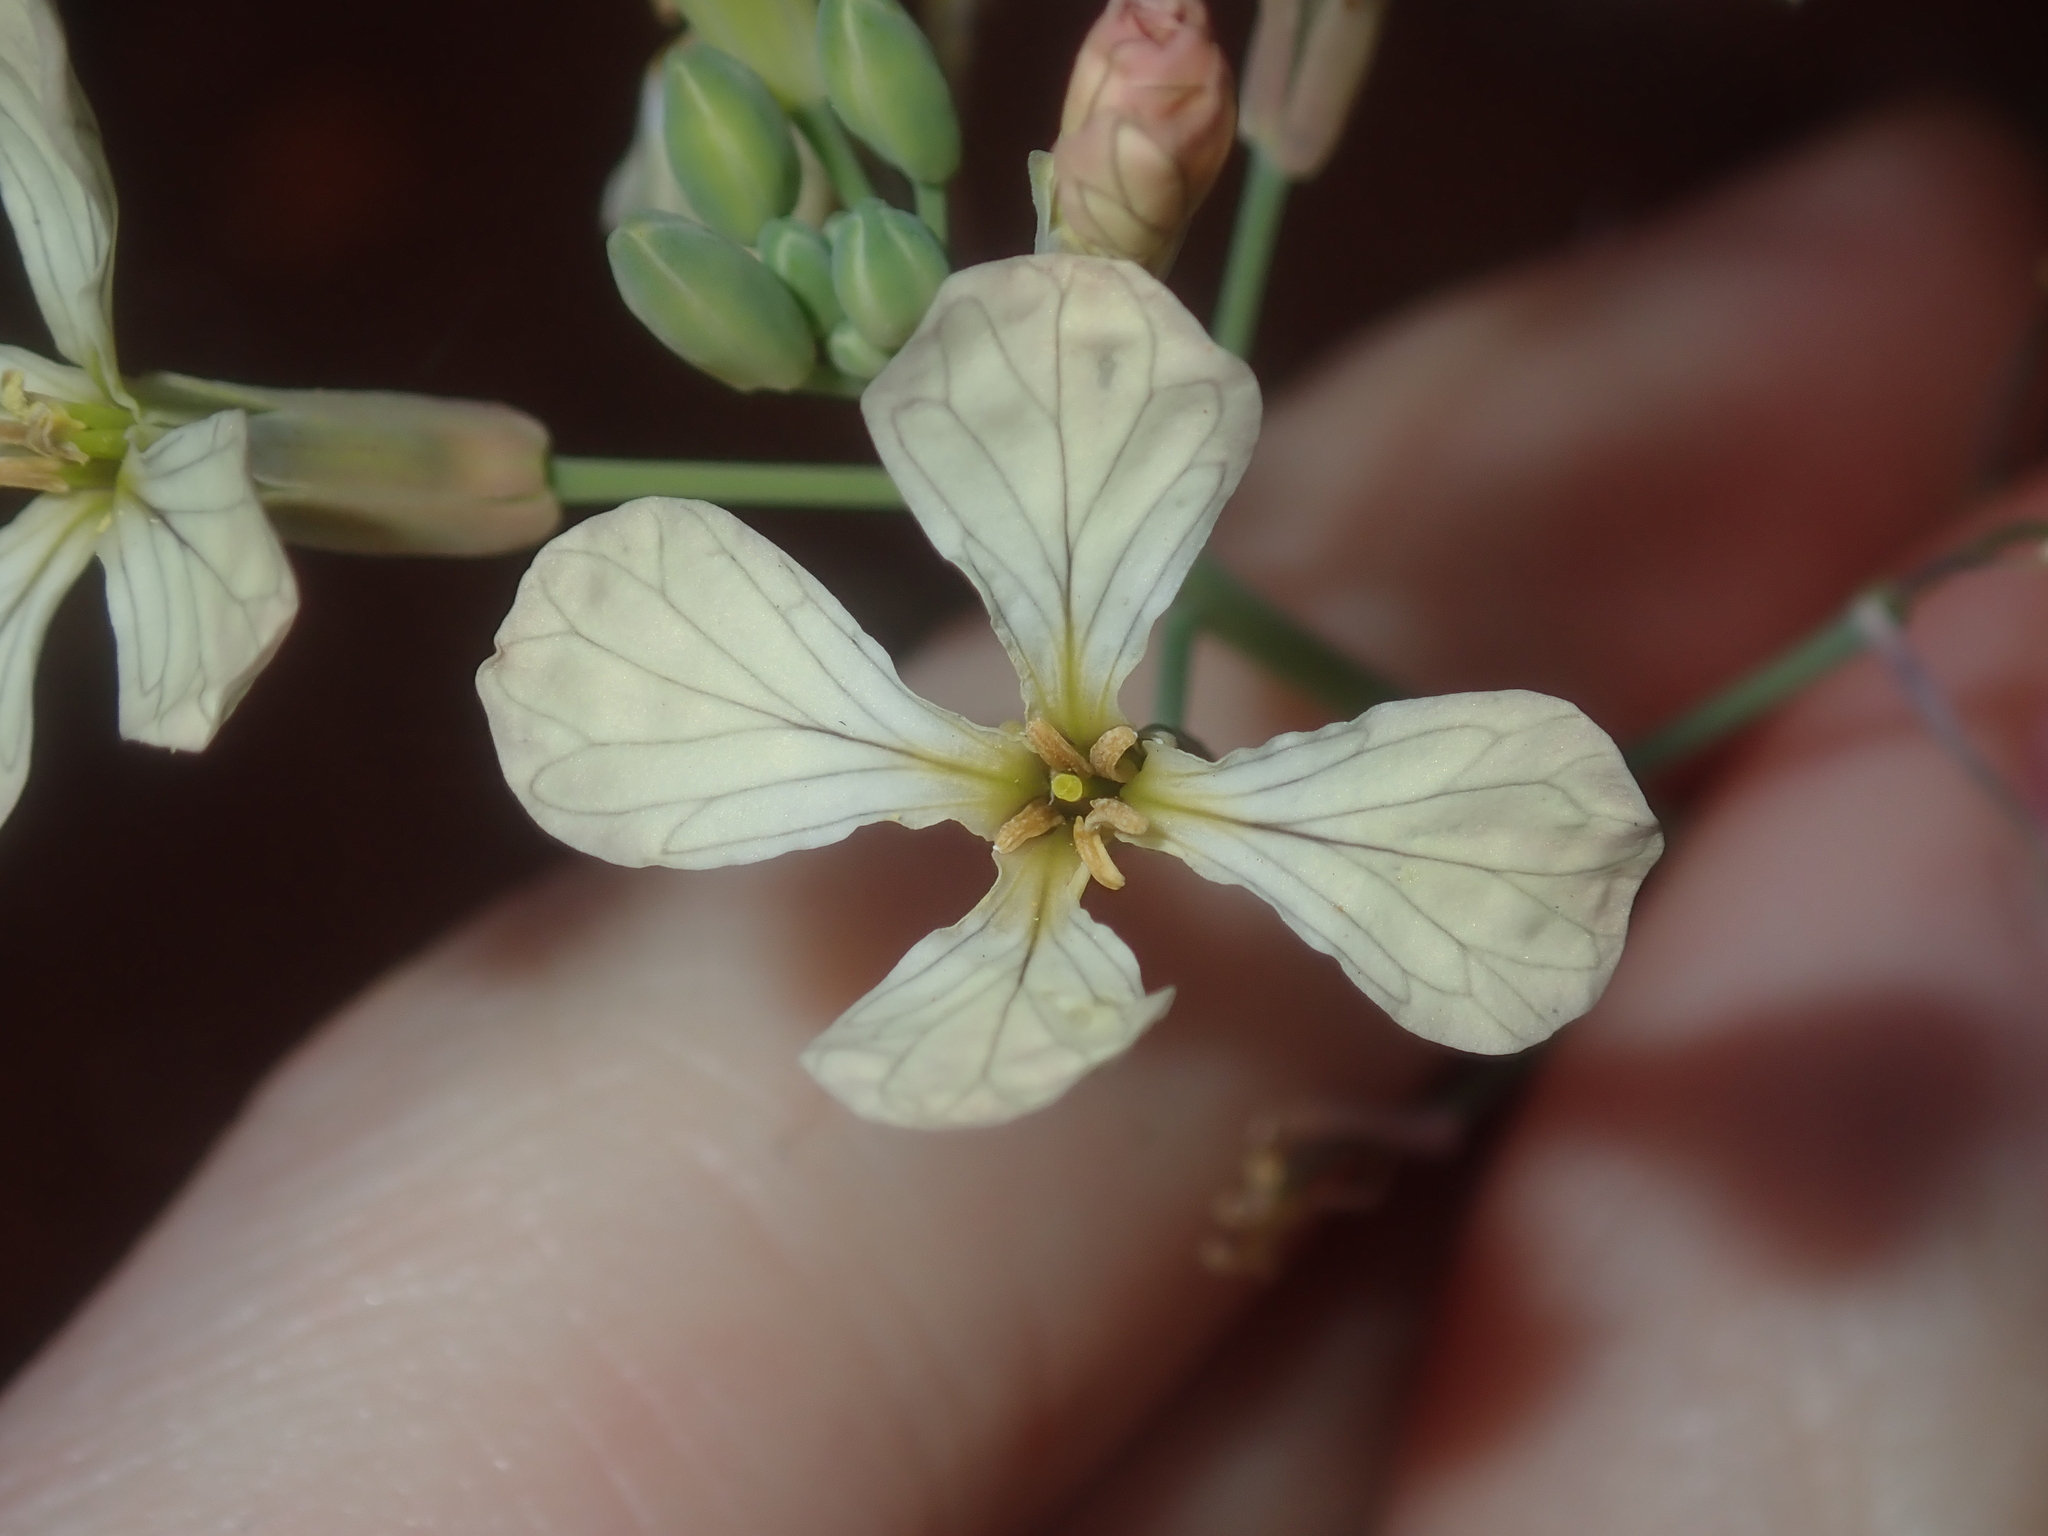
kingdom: Plantae
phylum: Tracheophyta
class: Magnoliopsida
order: Brassicales
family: Brassicaceae
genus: Raphanus
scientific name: Raphanus raphanistrum
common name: Wild radish
